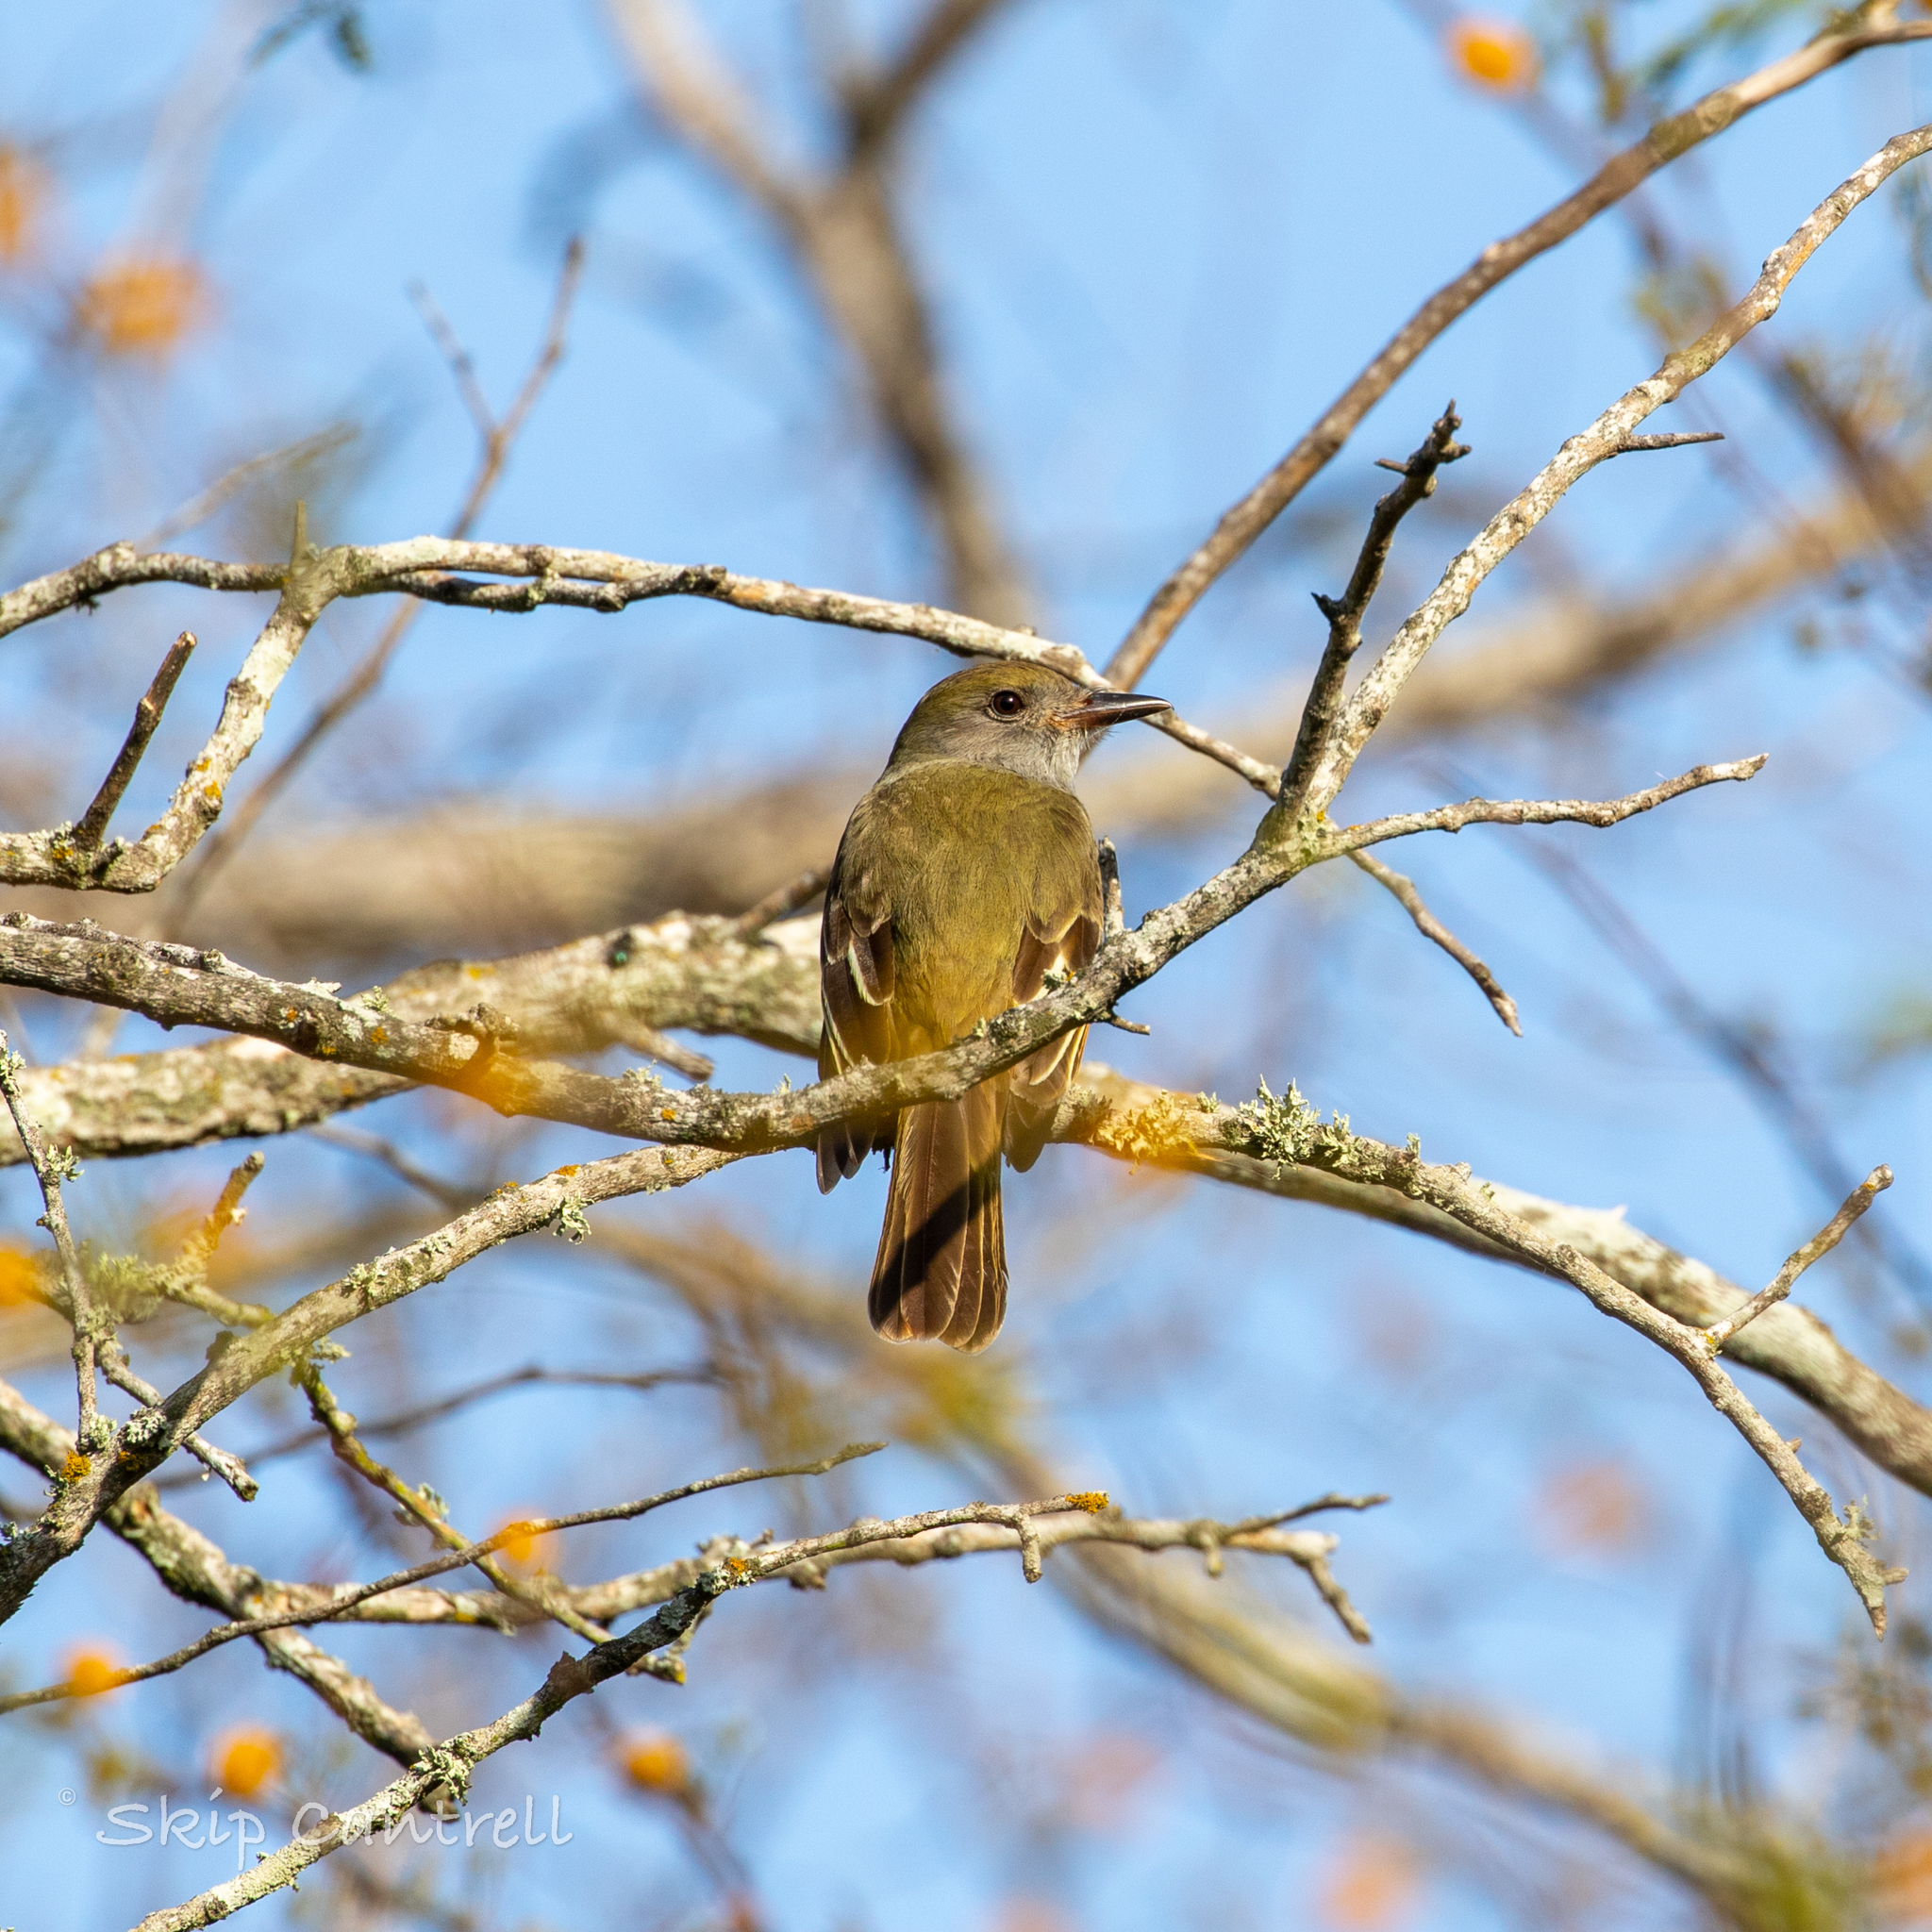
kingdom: Animalia
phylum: Chordata
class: Aves
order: Passeriformes
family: Tyrannidae
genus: Myiarchus
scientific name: Myiarchus crinitus
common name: Great crested flycatcher
